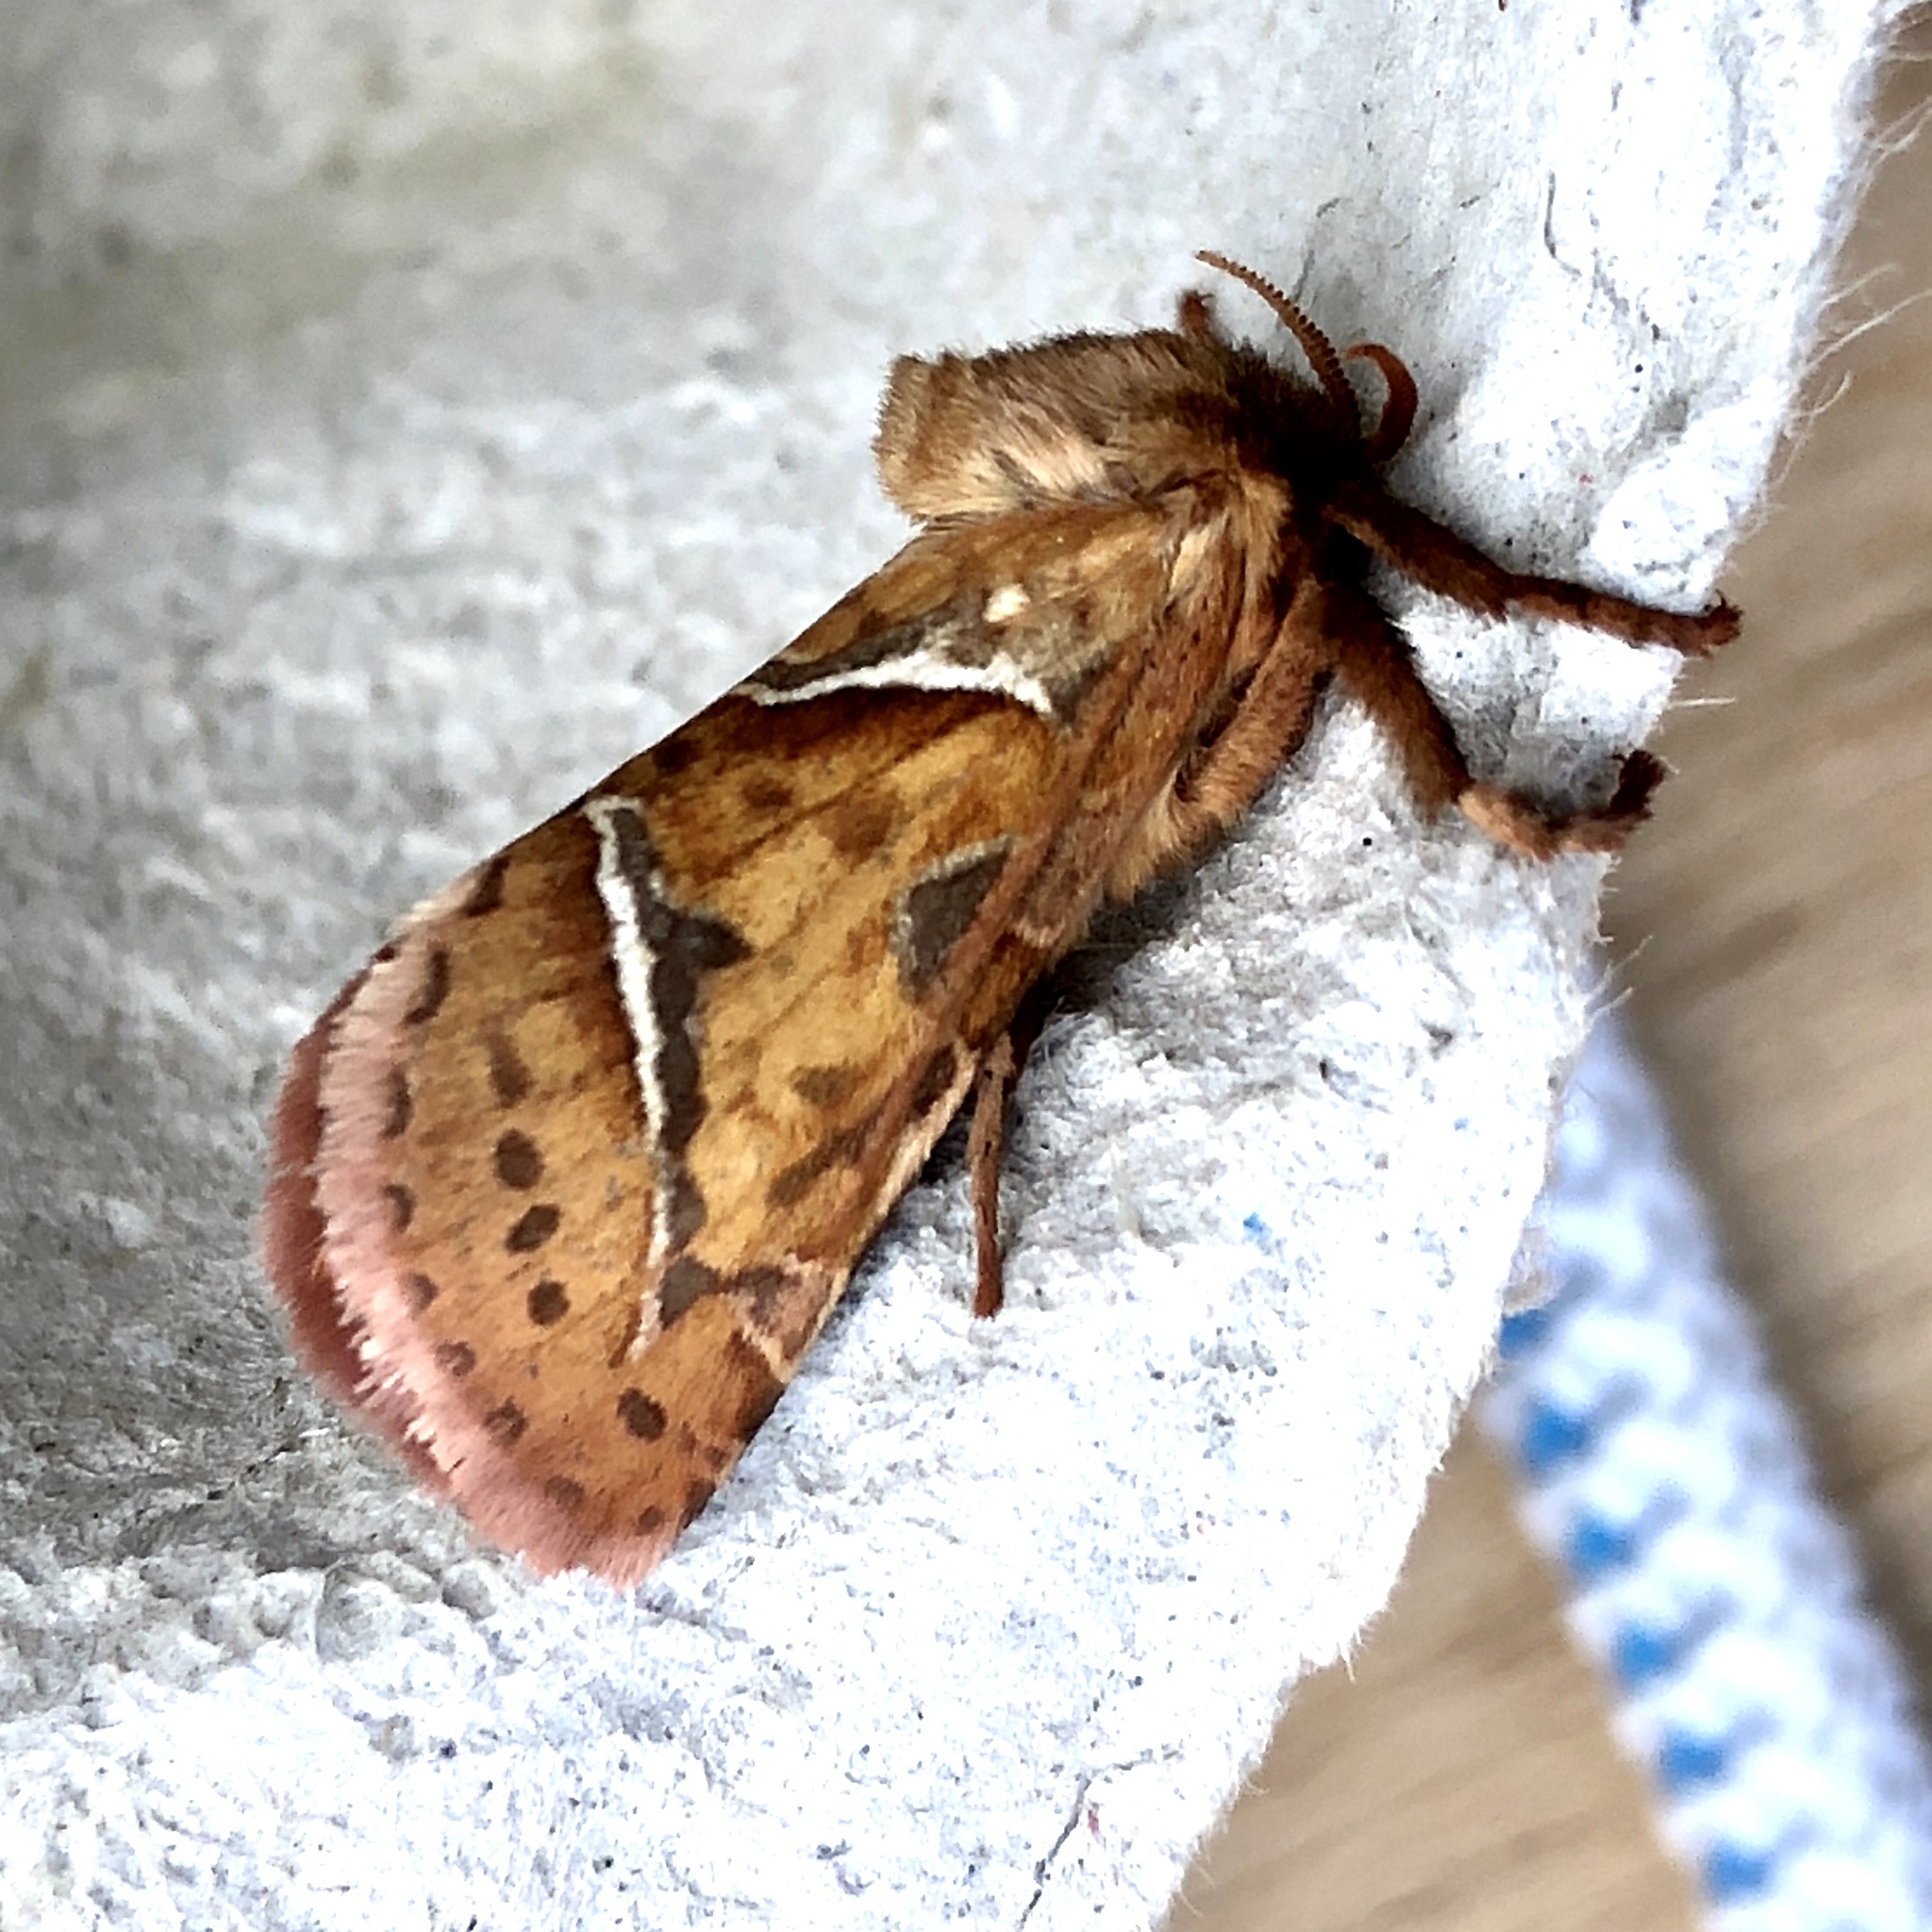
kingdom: Animalia
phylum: Arthropoda
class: Insecta
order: Lepidoptera
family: Hepialidae
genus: Triodia
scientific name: Triodia sylvina
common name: Orange swift
